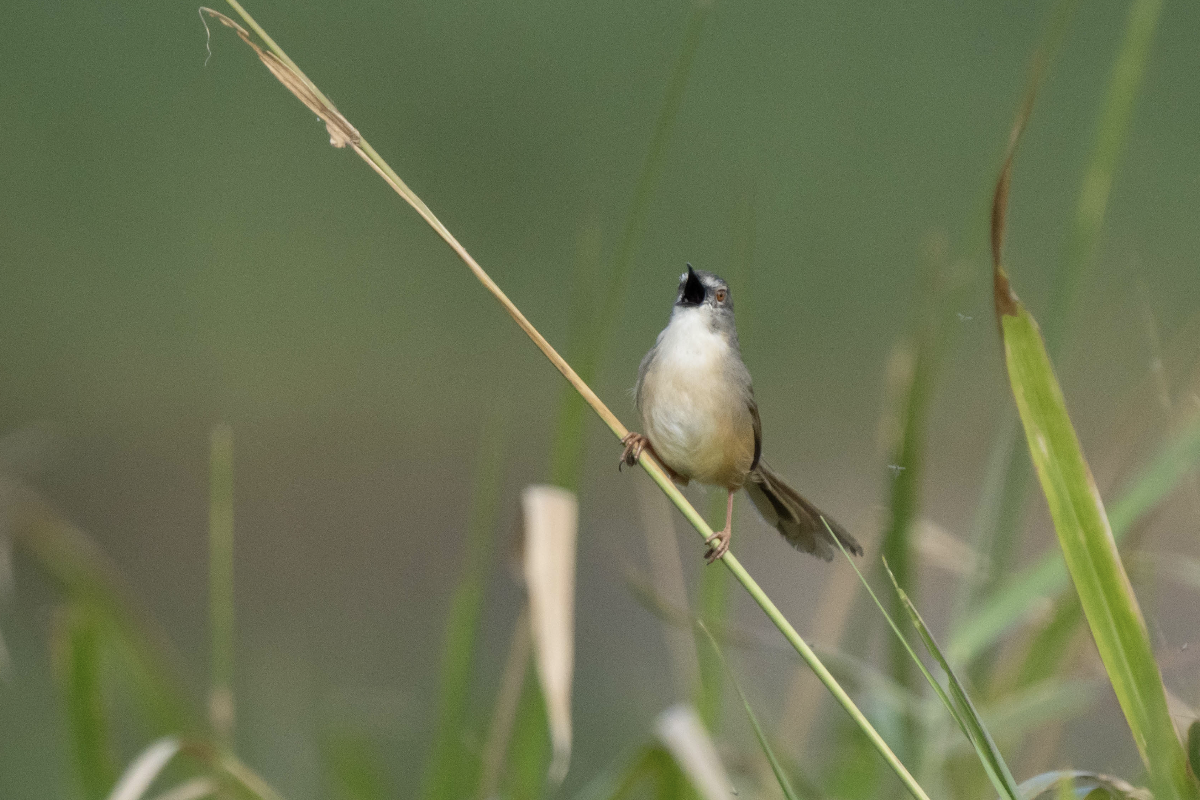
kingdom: Animalia
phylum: Chordata
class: Aves
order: Passeriformes
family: Cisticolidae
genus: Prinia
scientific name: Prinia flaviventris
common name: Yellow-bellied prinia
